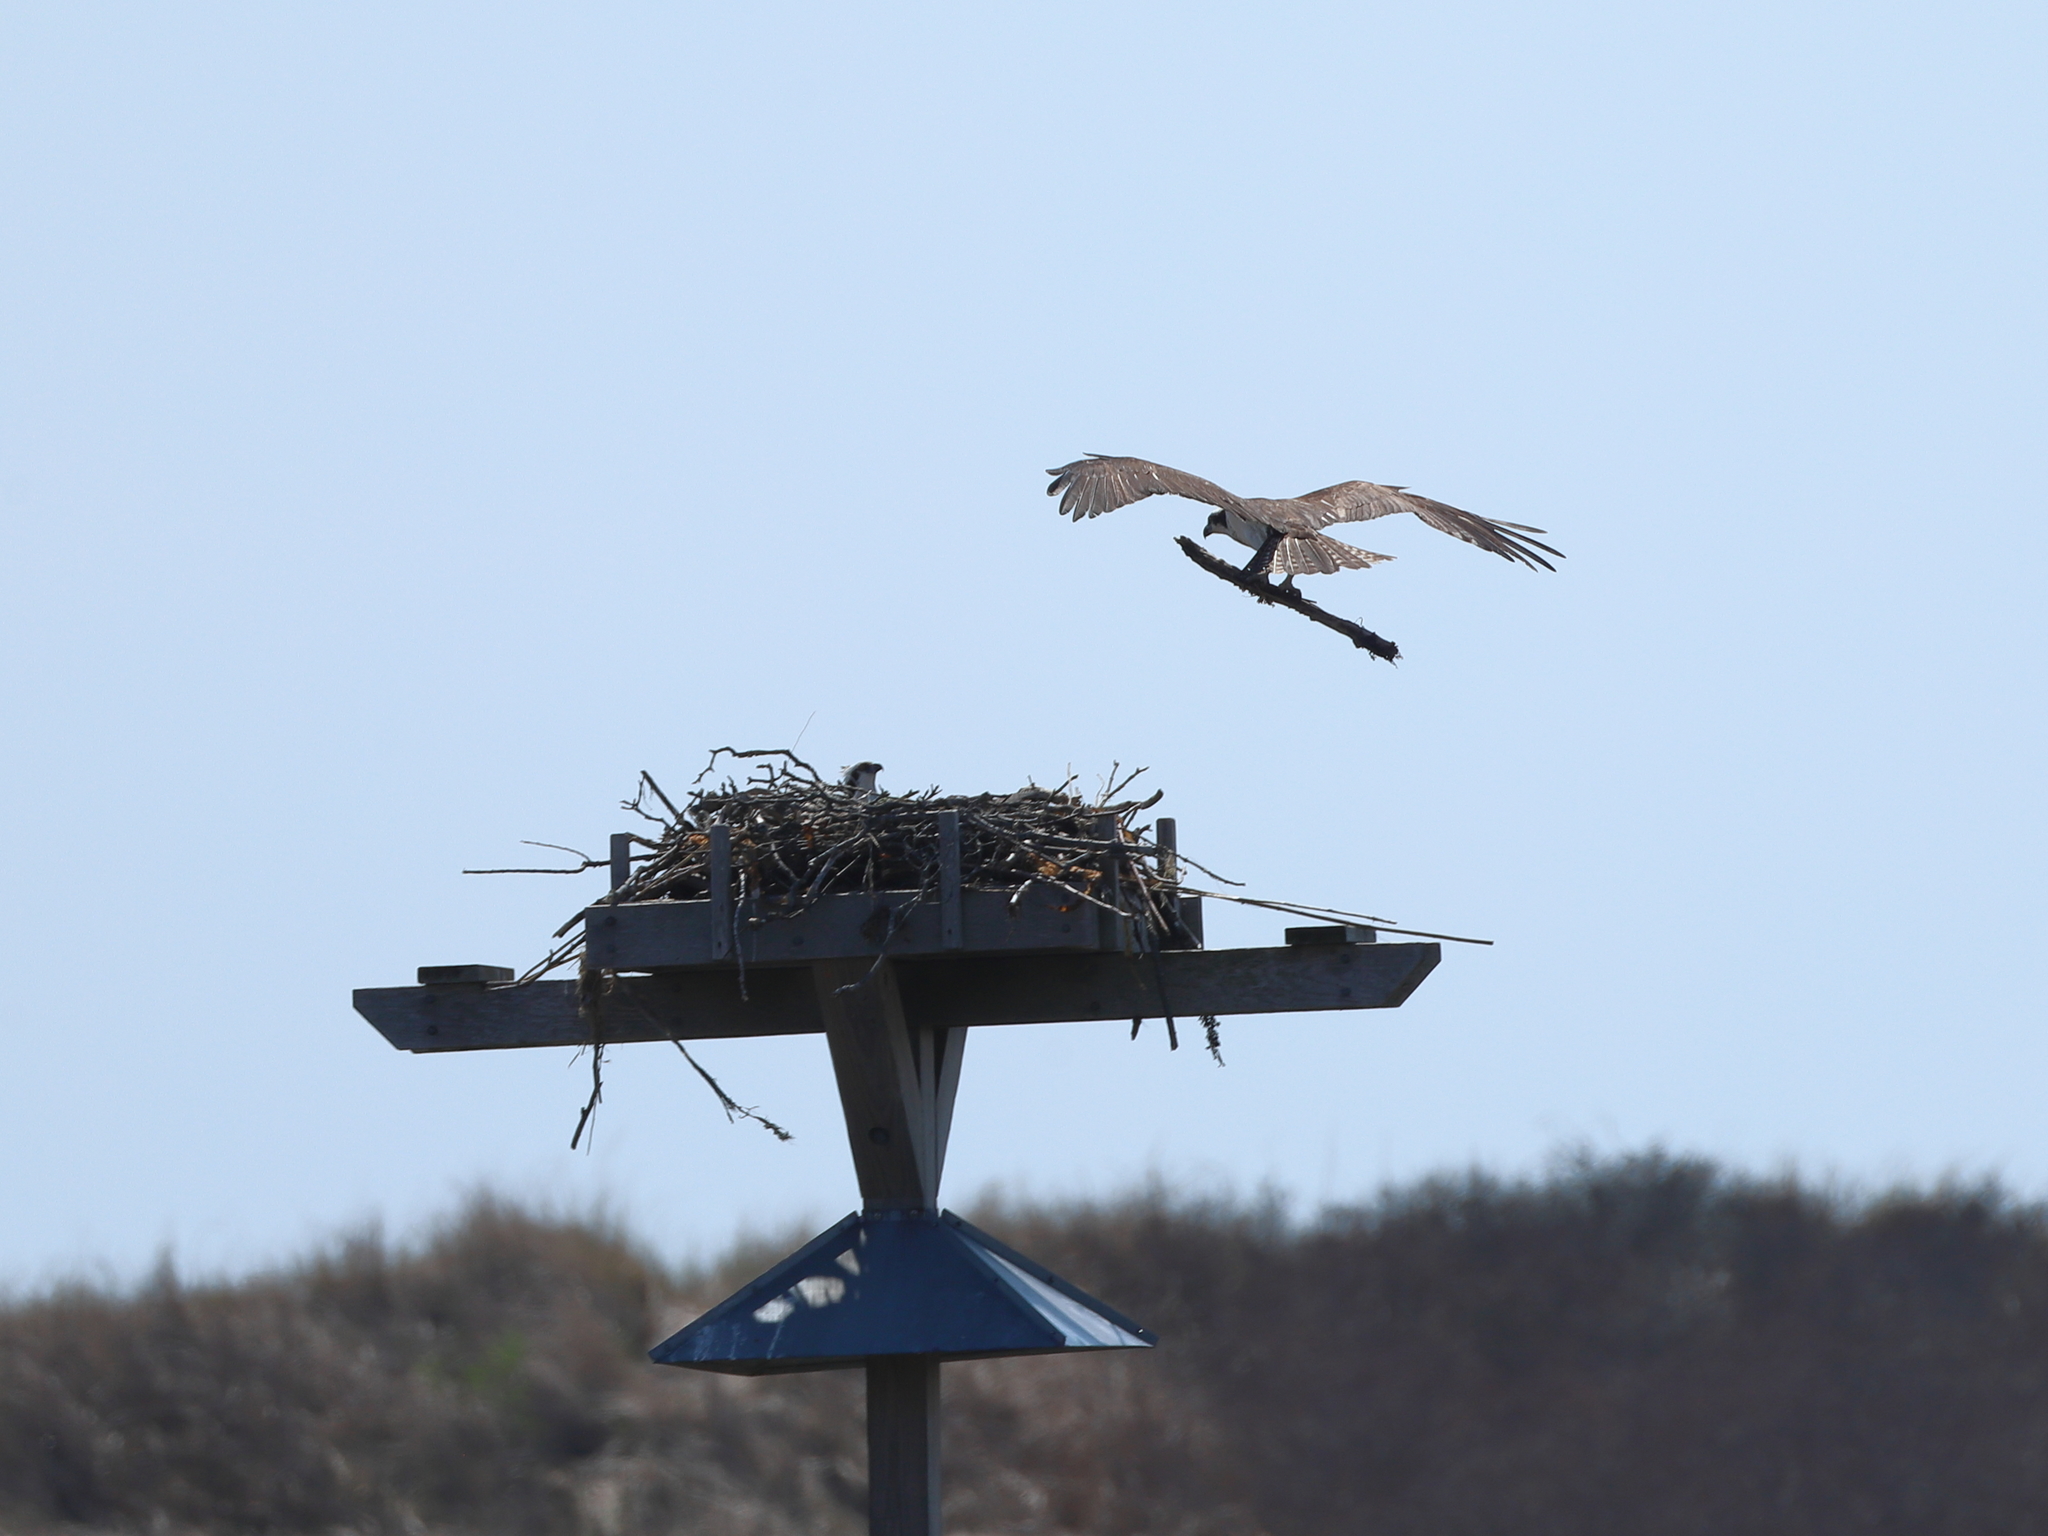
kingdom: Animalia
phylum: Chordata
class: Aves
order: Accipitriformes
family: Pandionidae
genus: Pandion
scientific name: Pandion haliaetus
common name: Osprey
